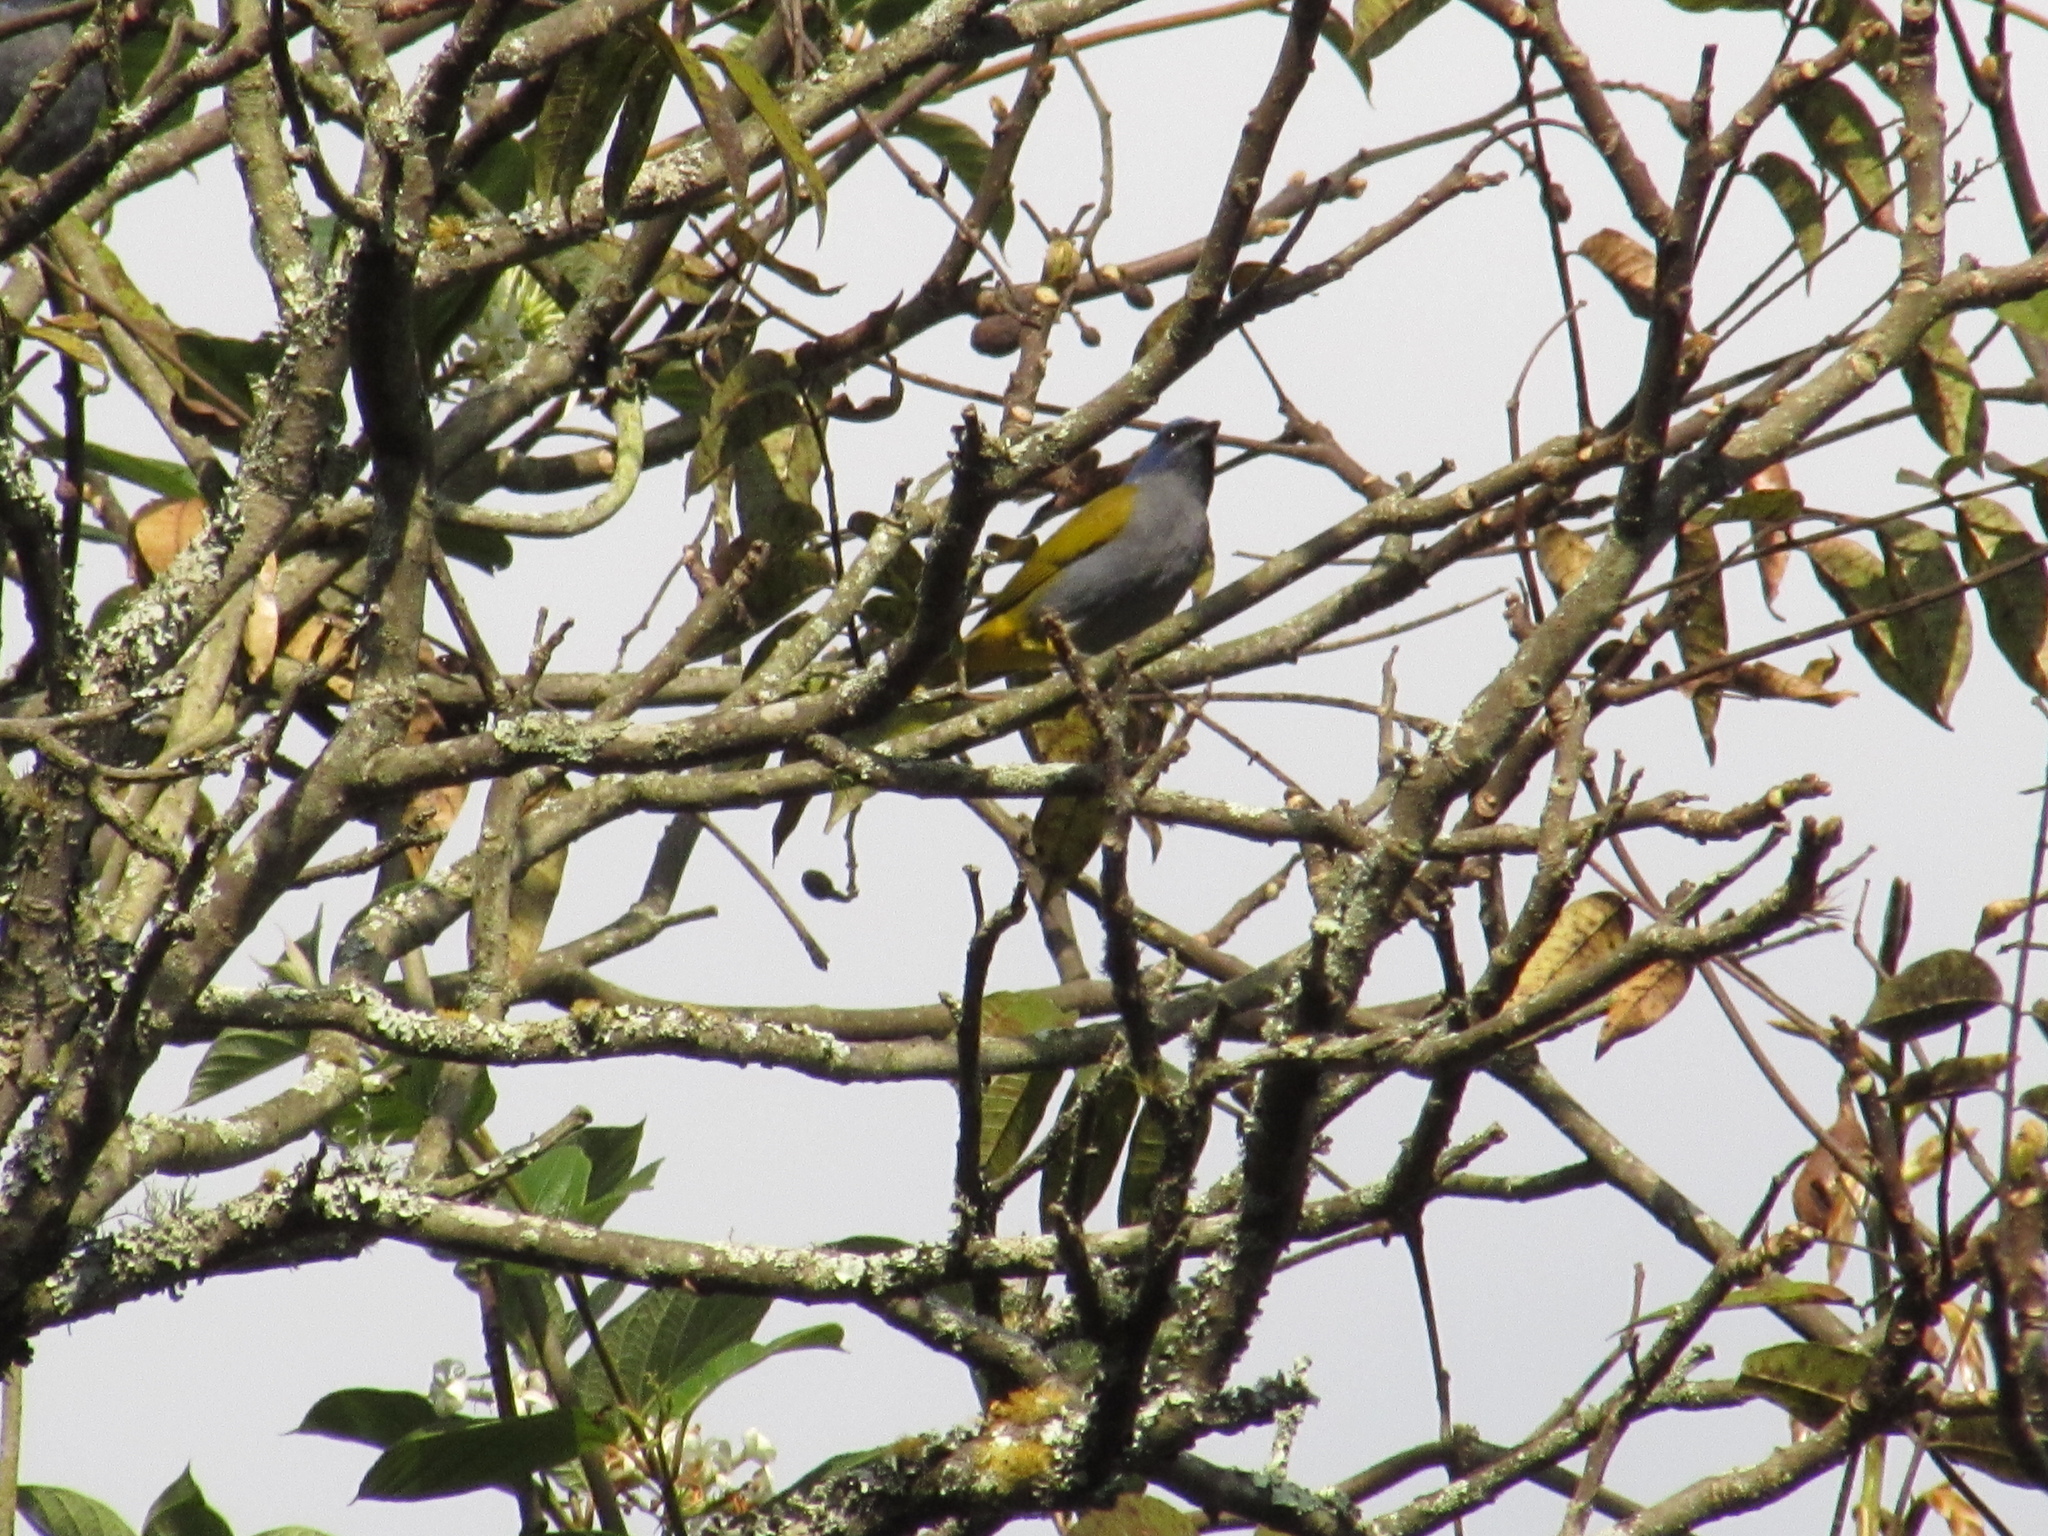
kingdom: Animalia
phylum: Chordata
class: Aves
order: Passeriformes
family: Thraupidae
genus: Sporathraupis
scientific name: Sporathraupis cyanocephala
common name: Blue-capped tanager
